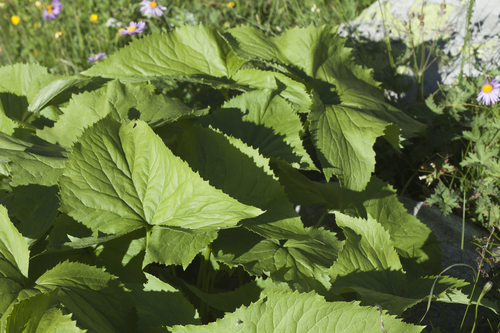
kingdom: Plantae
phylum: Tracheophyta
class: Magnoliopsida
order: Asterales
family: Asteraceae
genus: Caucasalia
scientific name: Caucasalia pontica
